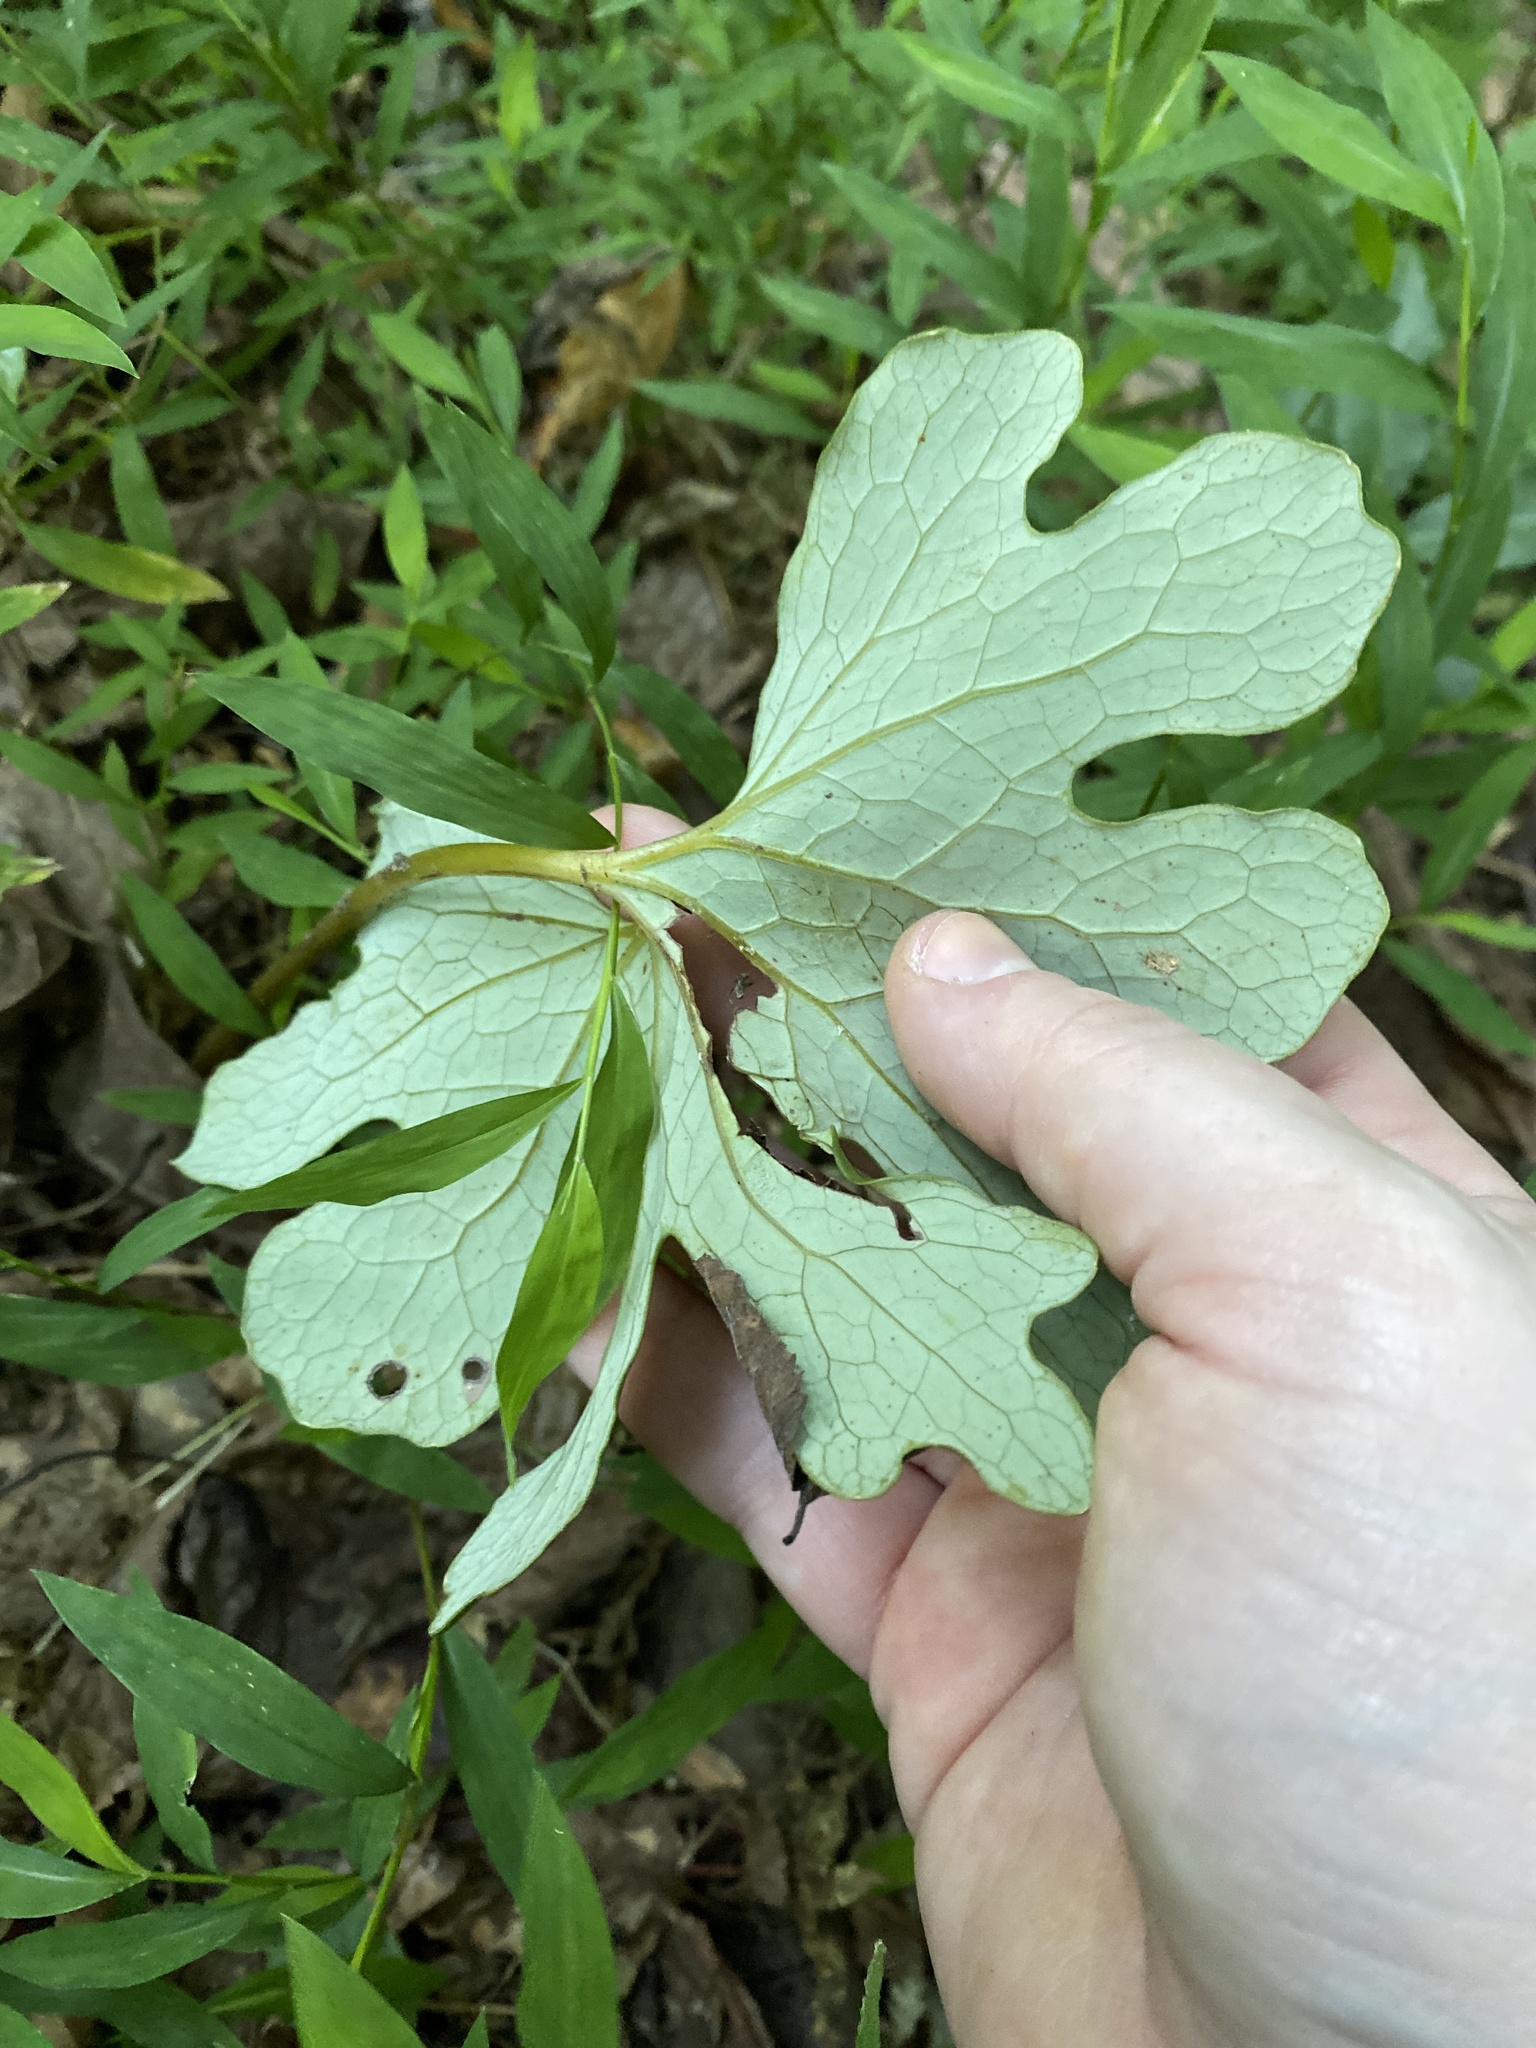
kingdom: Plantae
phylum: Tracheophyta
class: Magnoliopsida
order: Ranunculales
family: Papaveraceae
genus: Sanguinaria
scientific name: Sanguinaria canadensis
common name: Bloodroot
